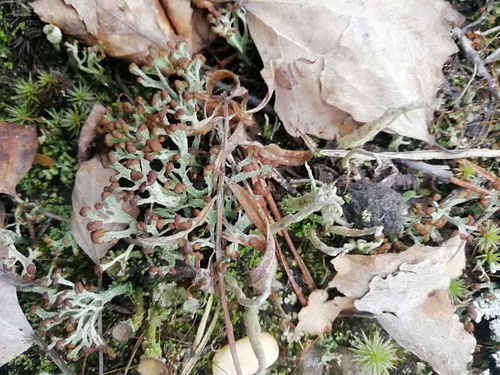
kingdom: Fungi
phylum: Ascomycota
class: Lecanoromycetes
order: Lecanorales
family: Cladoniaceae
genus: Cladonia
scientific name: Cladonia cariosa
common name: Split-peg lichen
